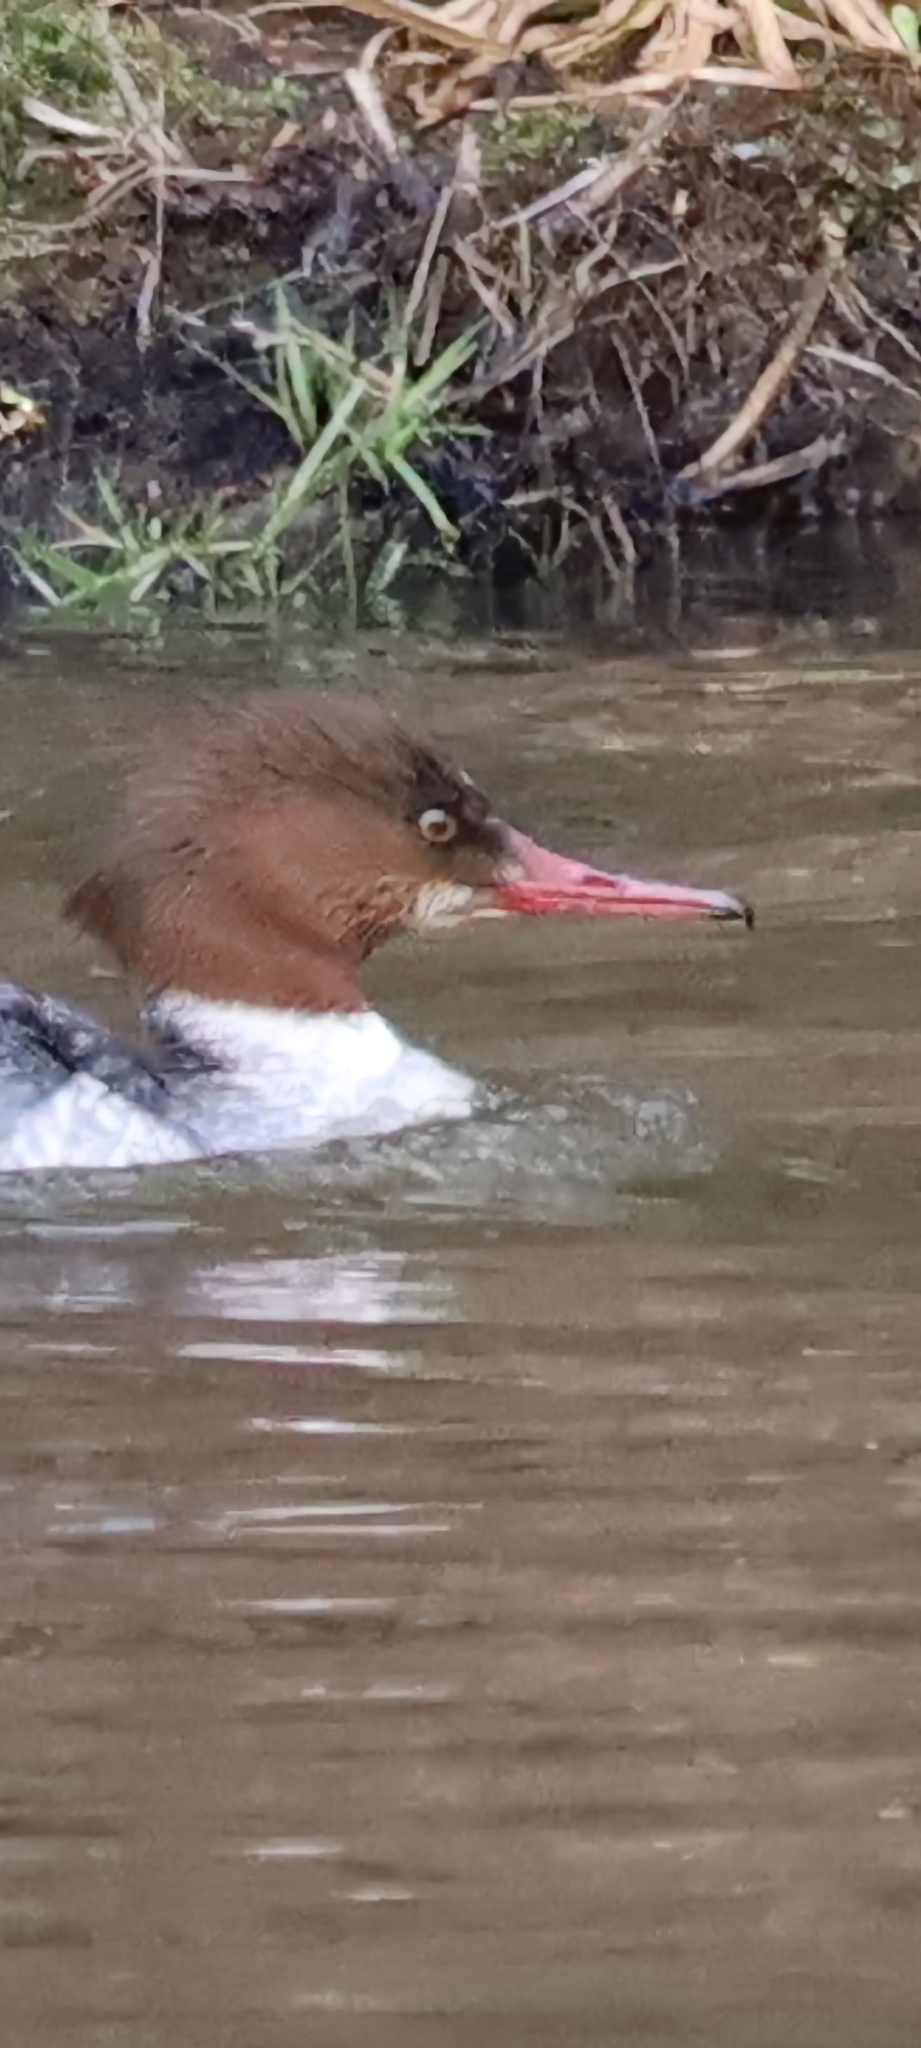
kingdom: Animalia
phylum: Chordata
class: Aves
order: Anseriformes
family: Anatidae
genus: Mergus
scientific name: Mergus merganser
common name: Common merganser
